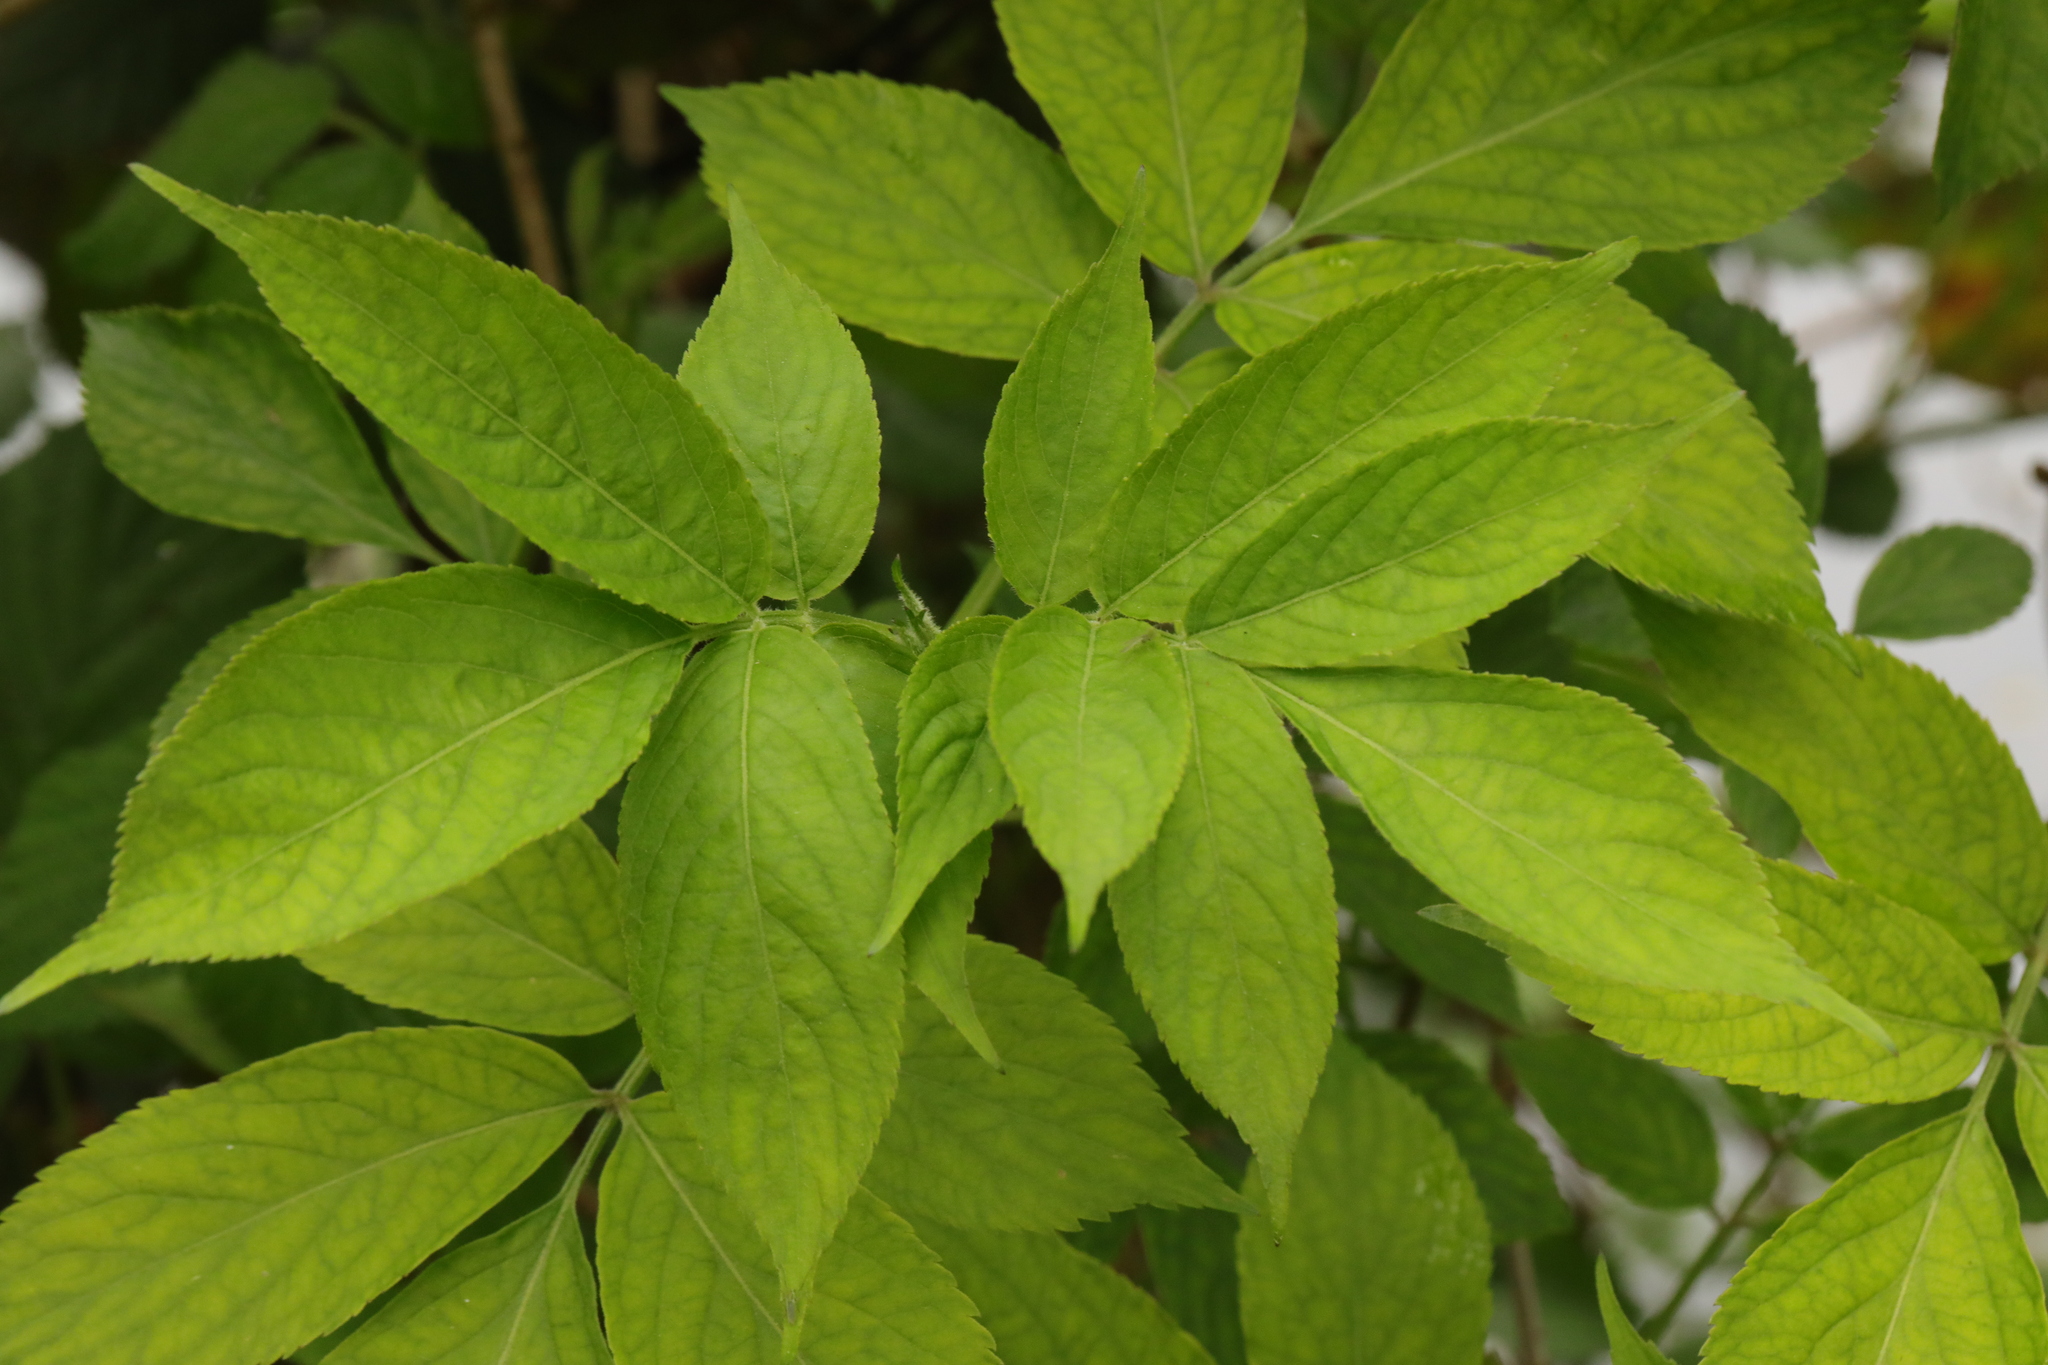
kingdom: Plantae
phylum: Tracheophyta
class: Magnoliopsida
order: Dipsacales
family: Viburnaceae
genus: Sambucus
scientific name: Sambucus nigra
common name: Elder
